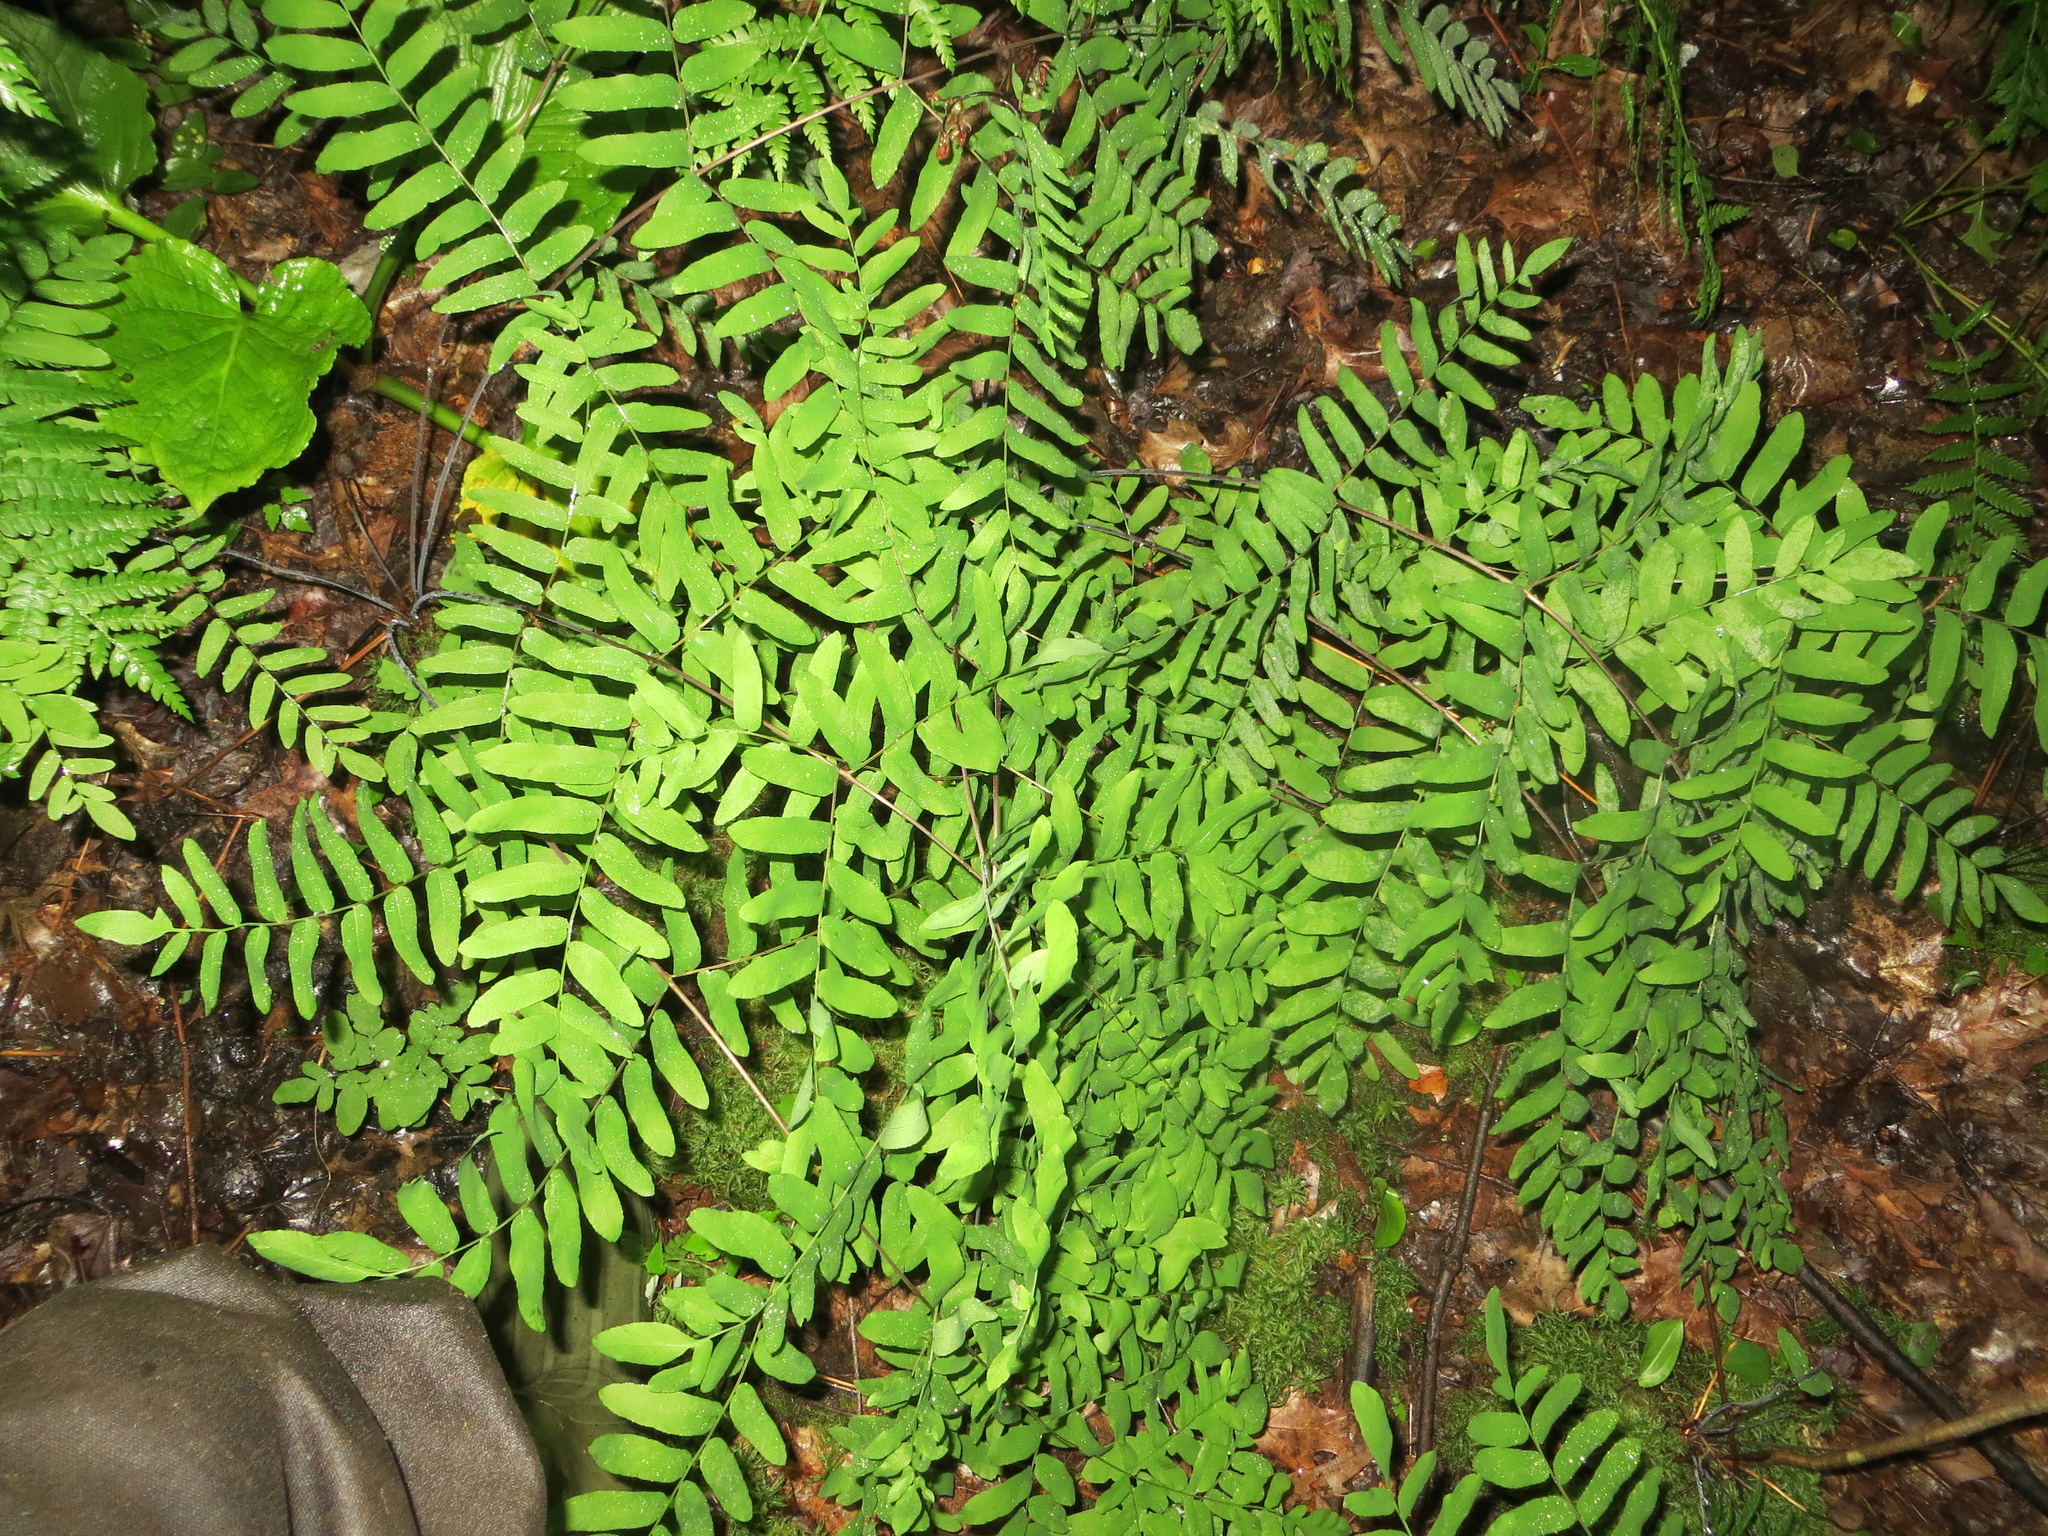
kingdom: Plantae
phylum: Tracheophyta
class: Polypodiopsida
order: Osmundales
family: Osmundaceae
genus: Osmunda
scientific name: Osmunda spectabilis
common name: American royal fern
